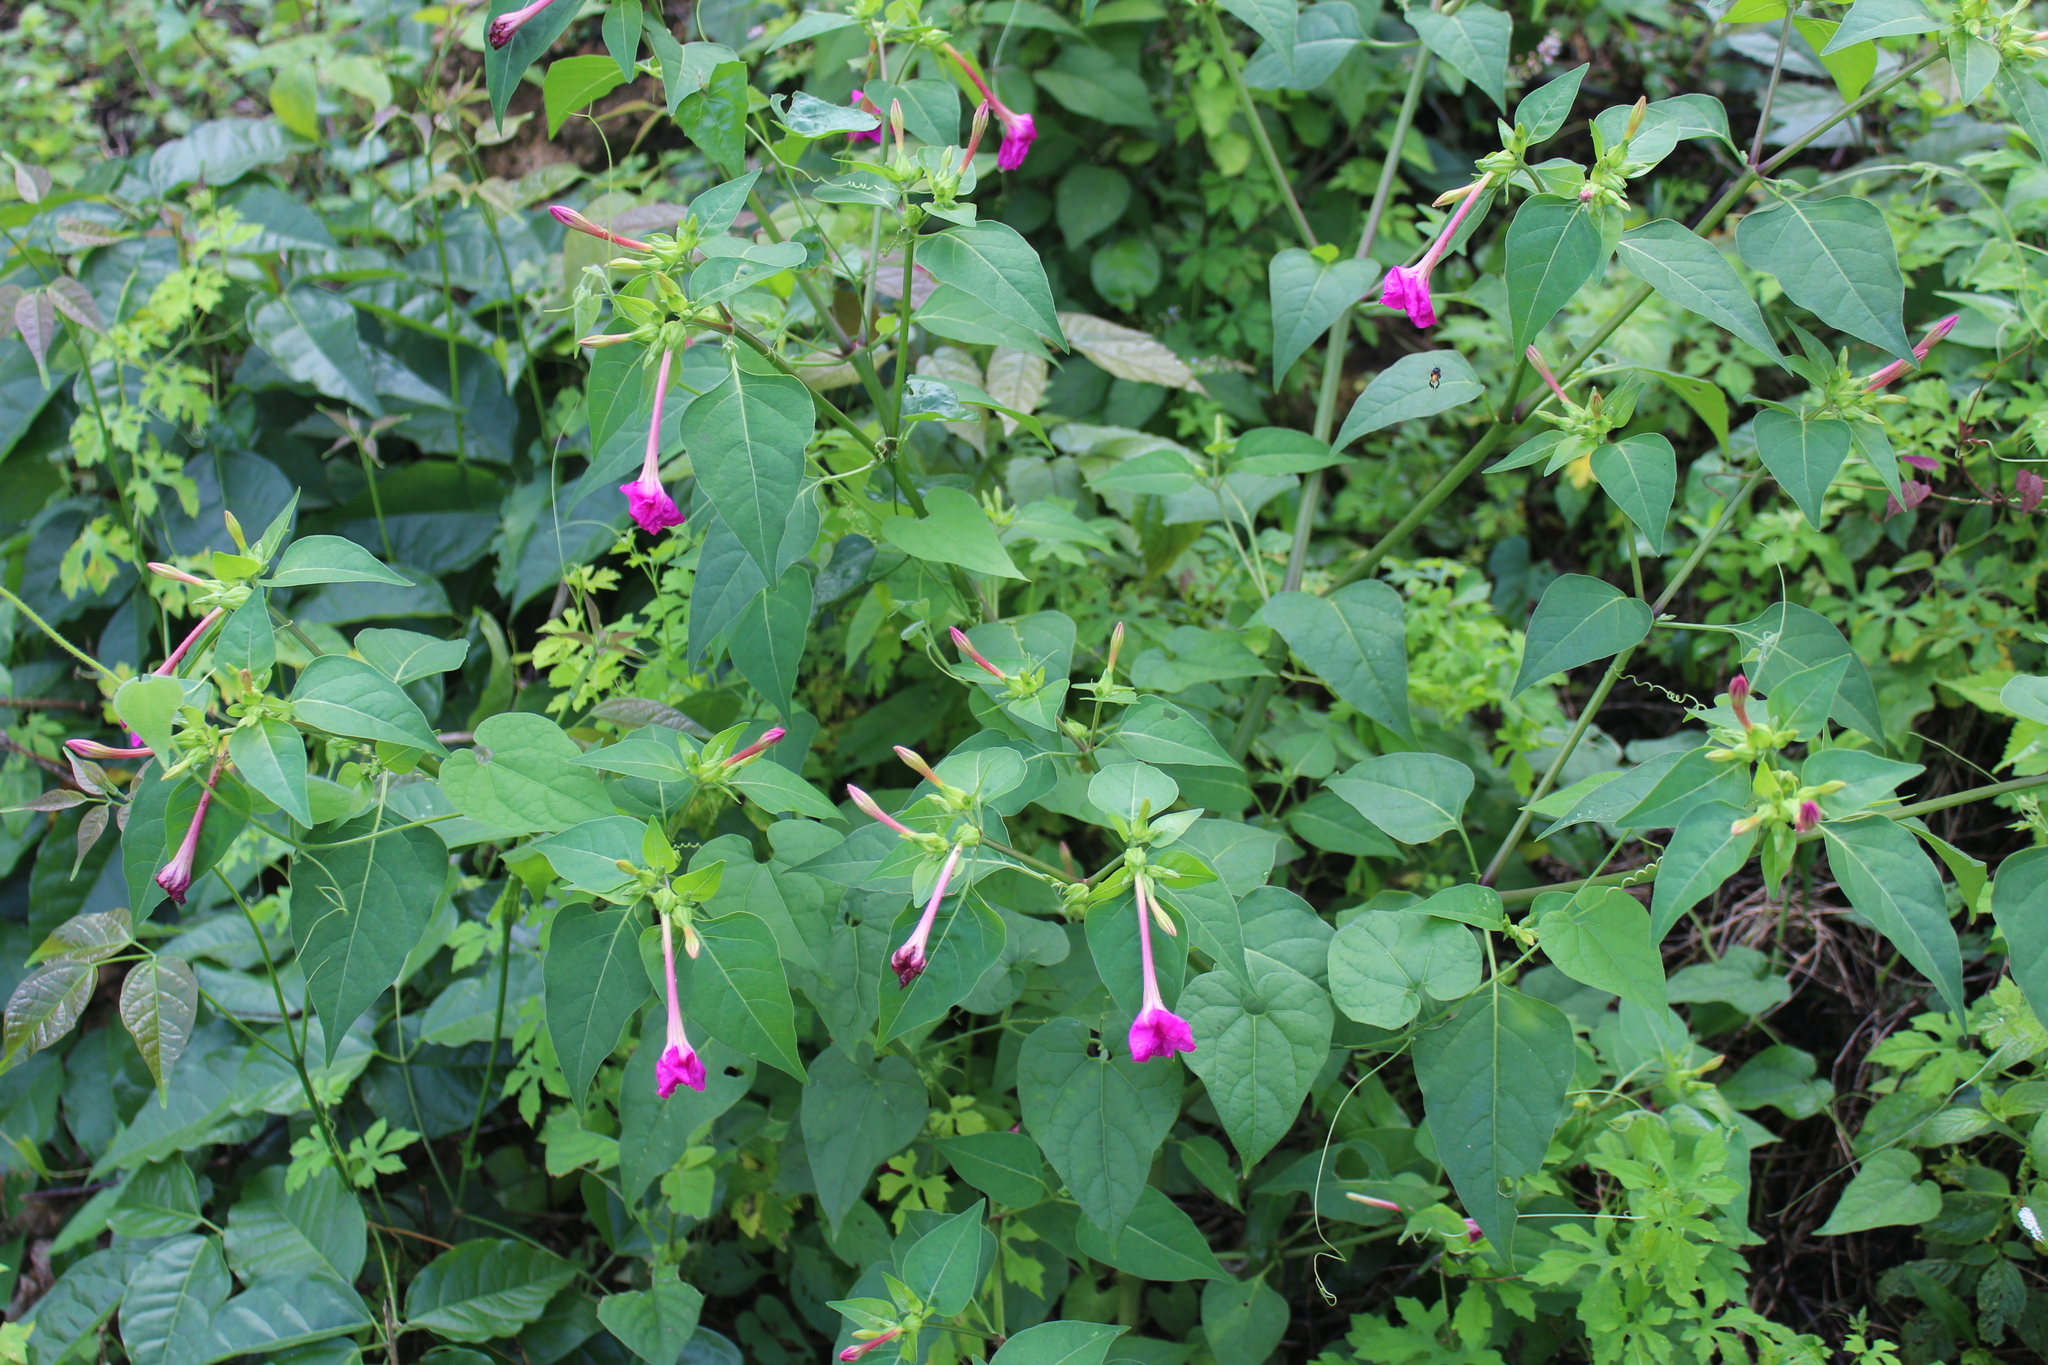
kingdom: Plantae
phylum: Tracheophyta
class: Magnoliopsida
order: Caryophyllales
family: Nyctaginaceae
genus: Mirabilis
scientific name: Mirabilis jalapa
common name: Marvel-of-peru
